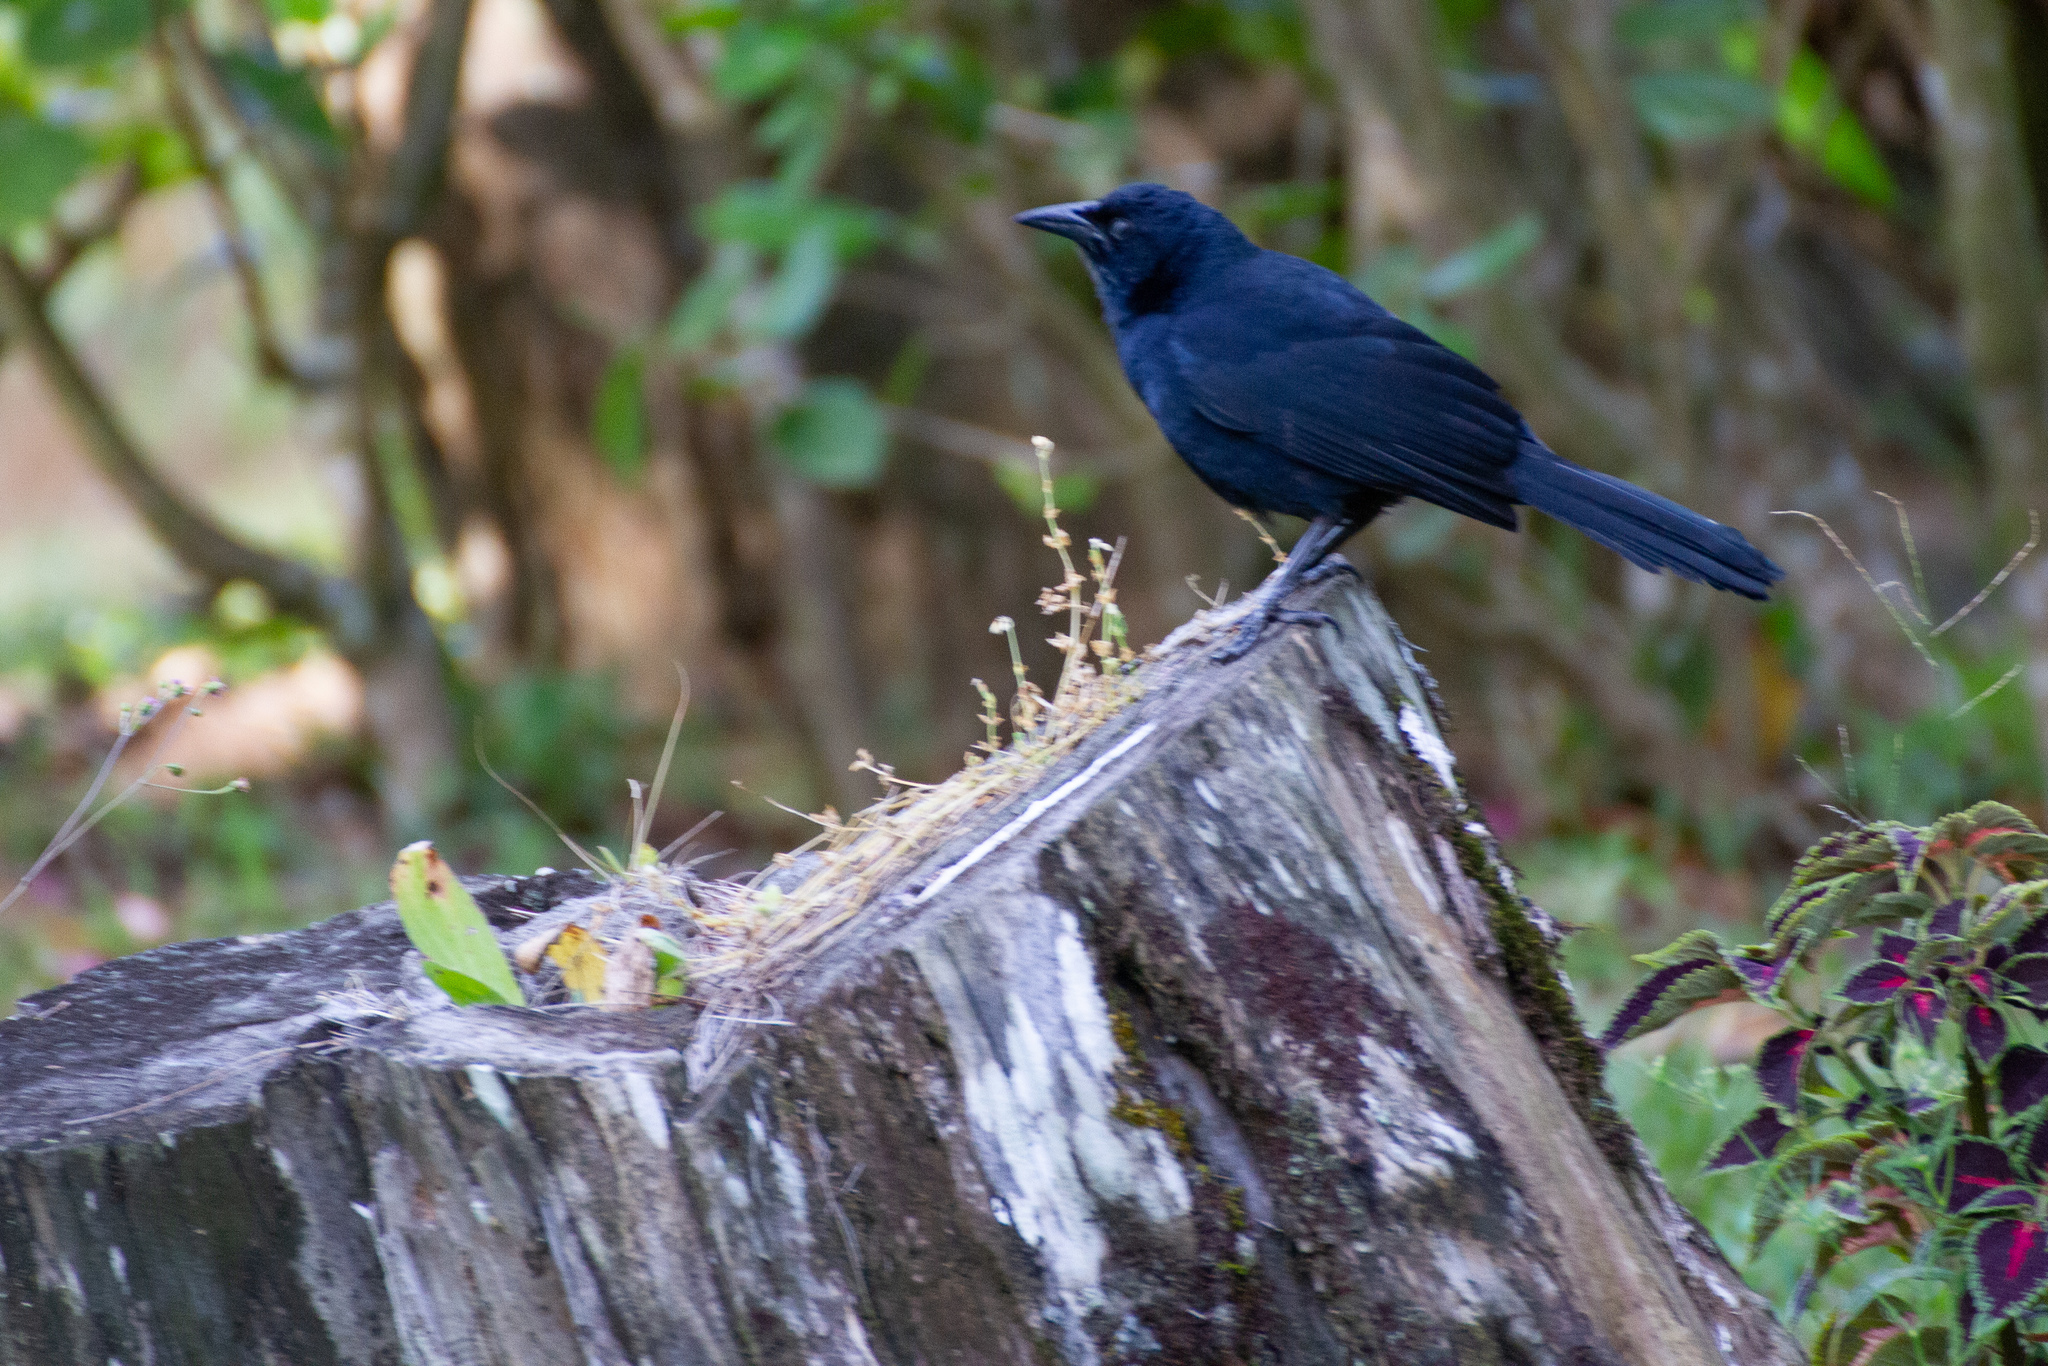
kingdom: Animalia
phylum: Chordata
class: Aves
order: Passeriformes
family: Icteridae
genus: Dives
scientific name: Dives dives
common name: Melodious blackbird
